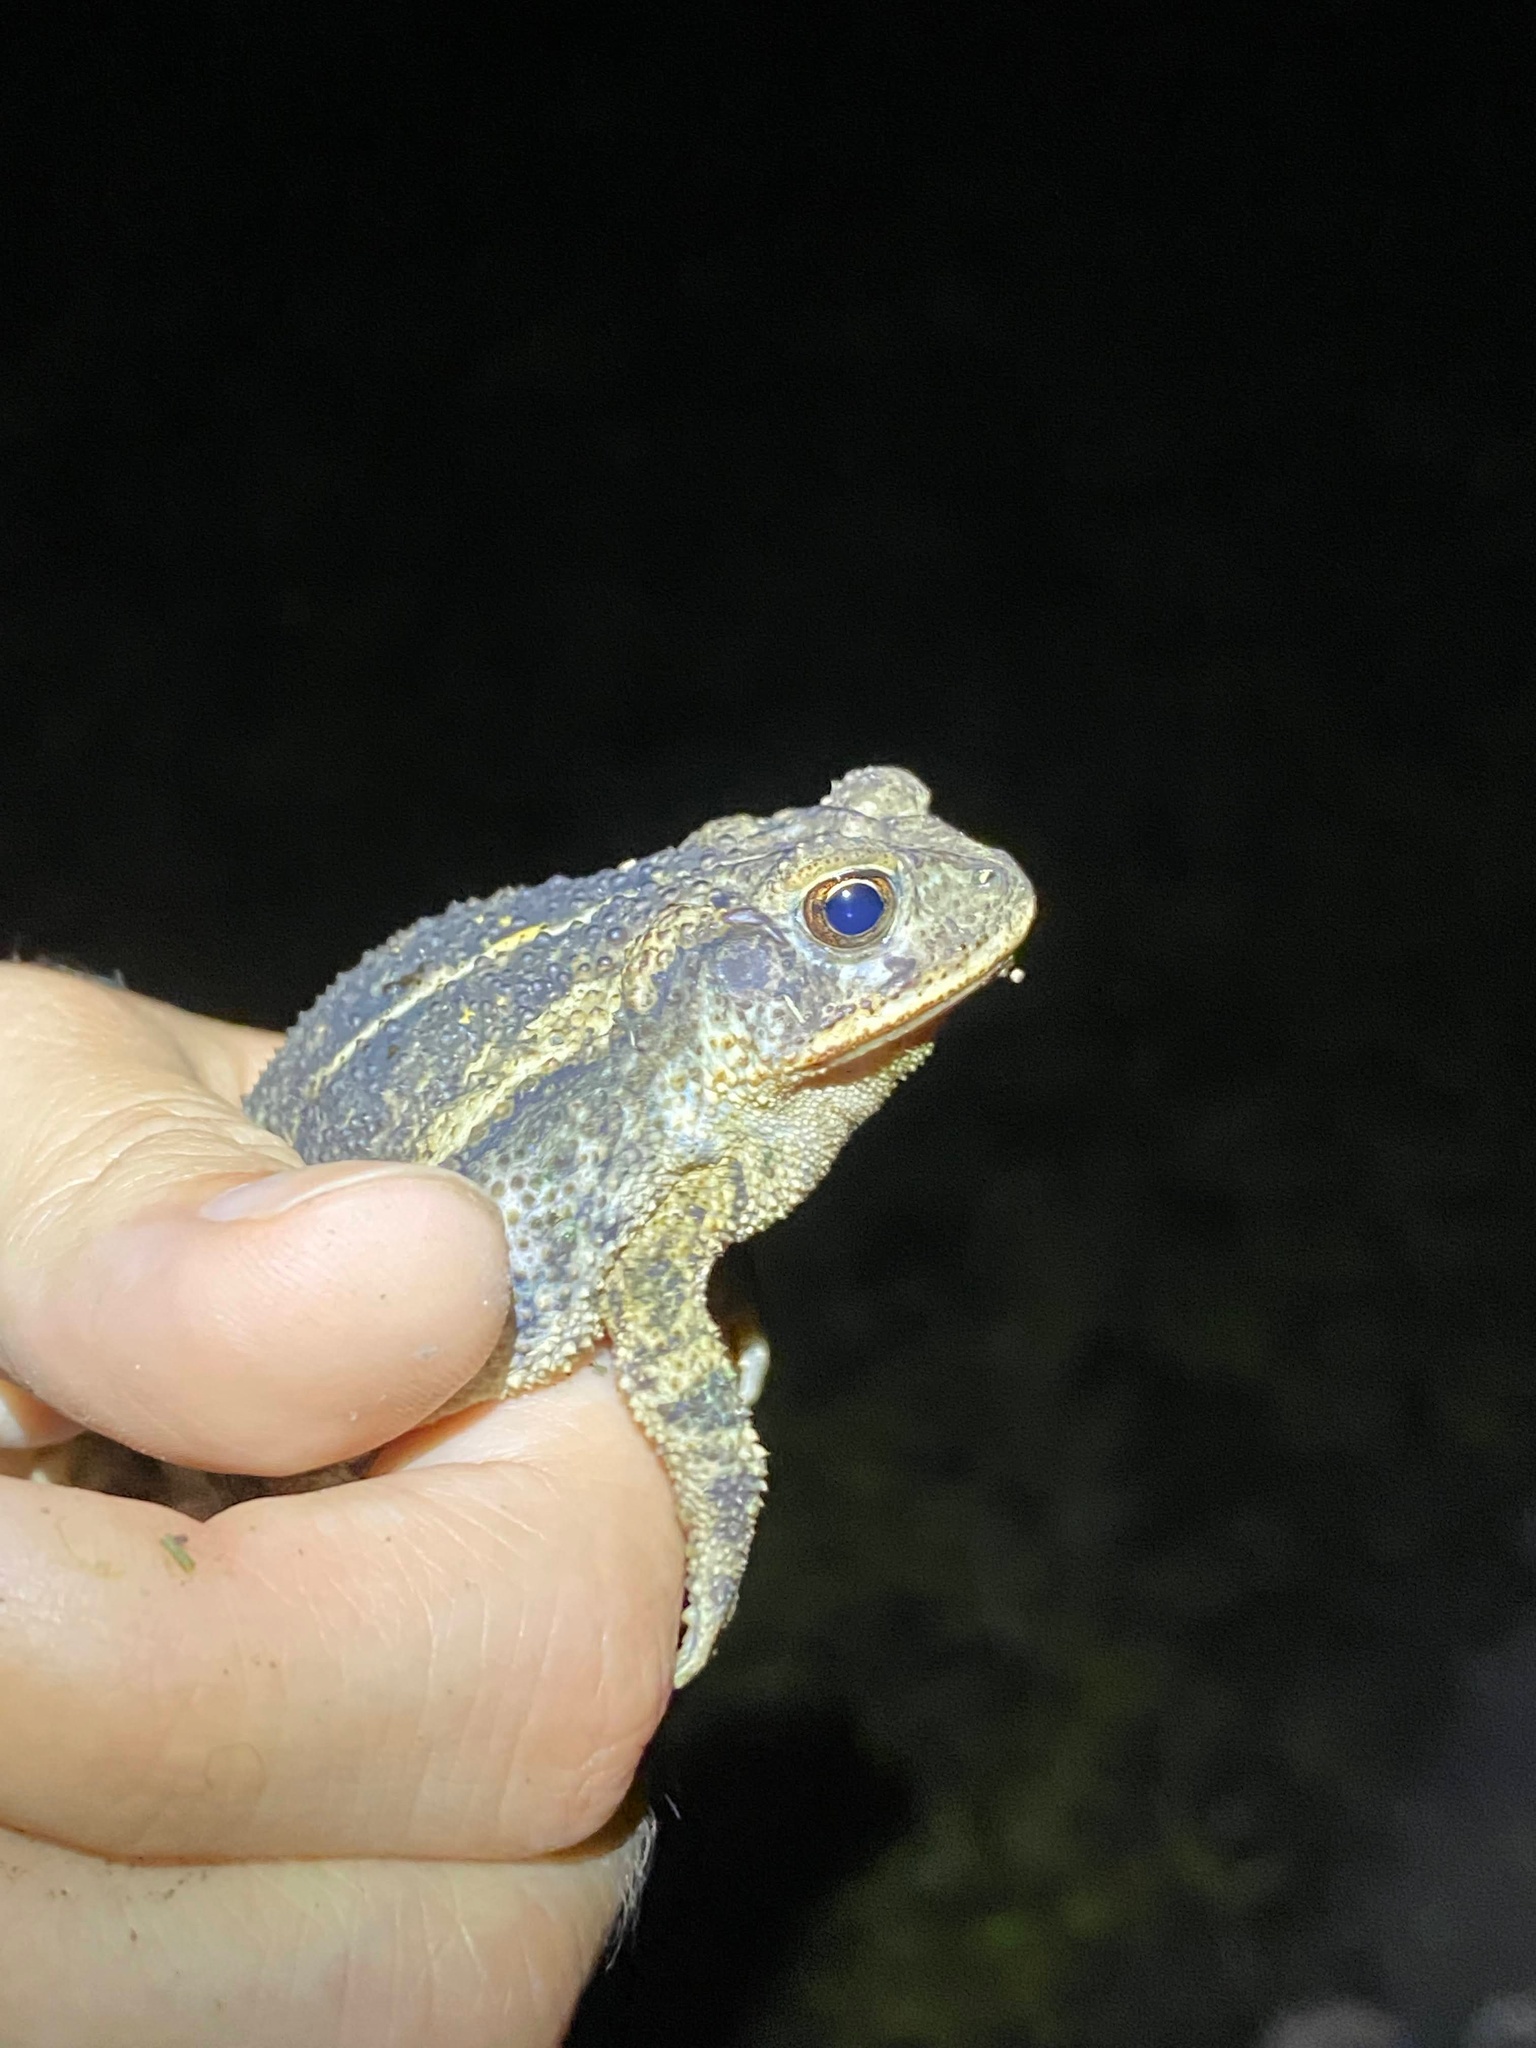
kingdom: Animalia
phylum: Chordata
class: Amphibia
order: Anura
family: Bufonidae
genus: Incilius
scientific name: Incilius nebulifer
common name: Gulf coast toad
